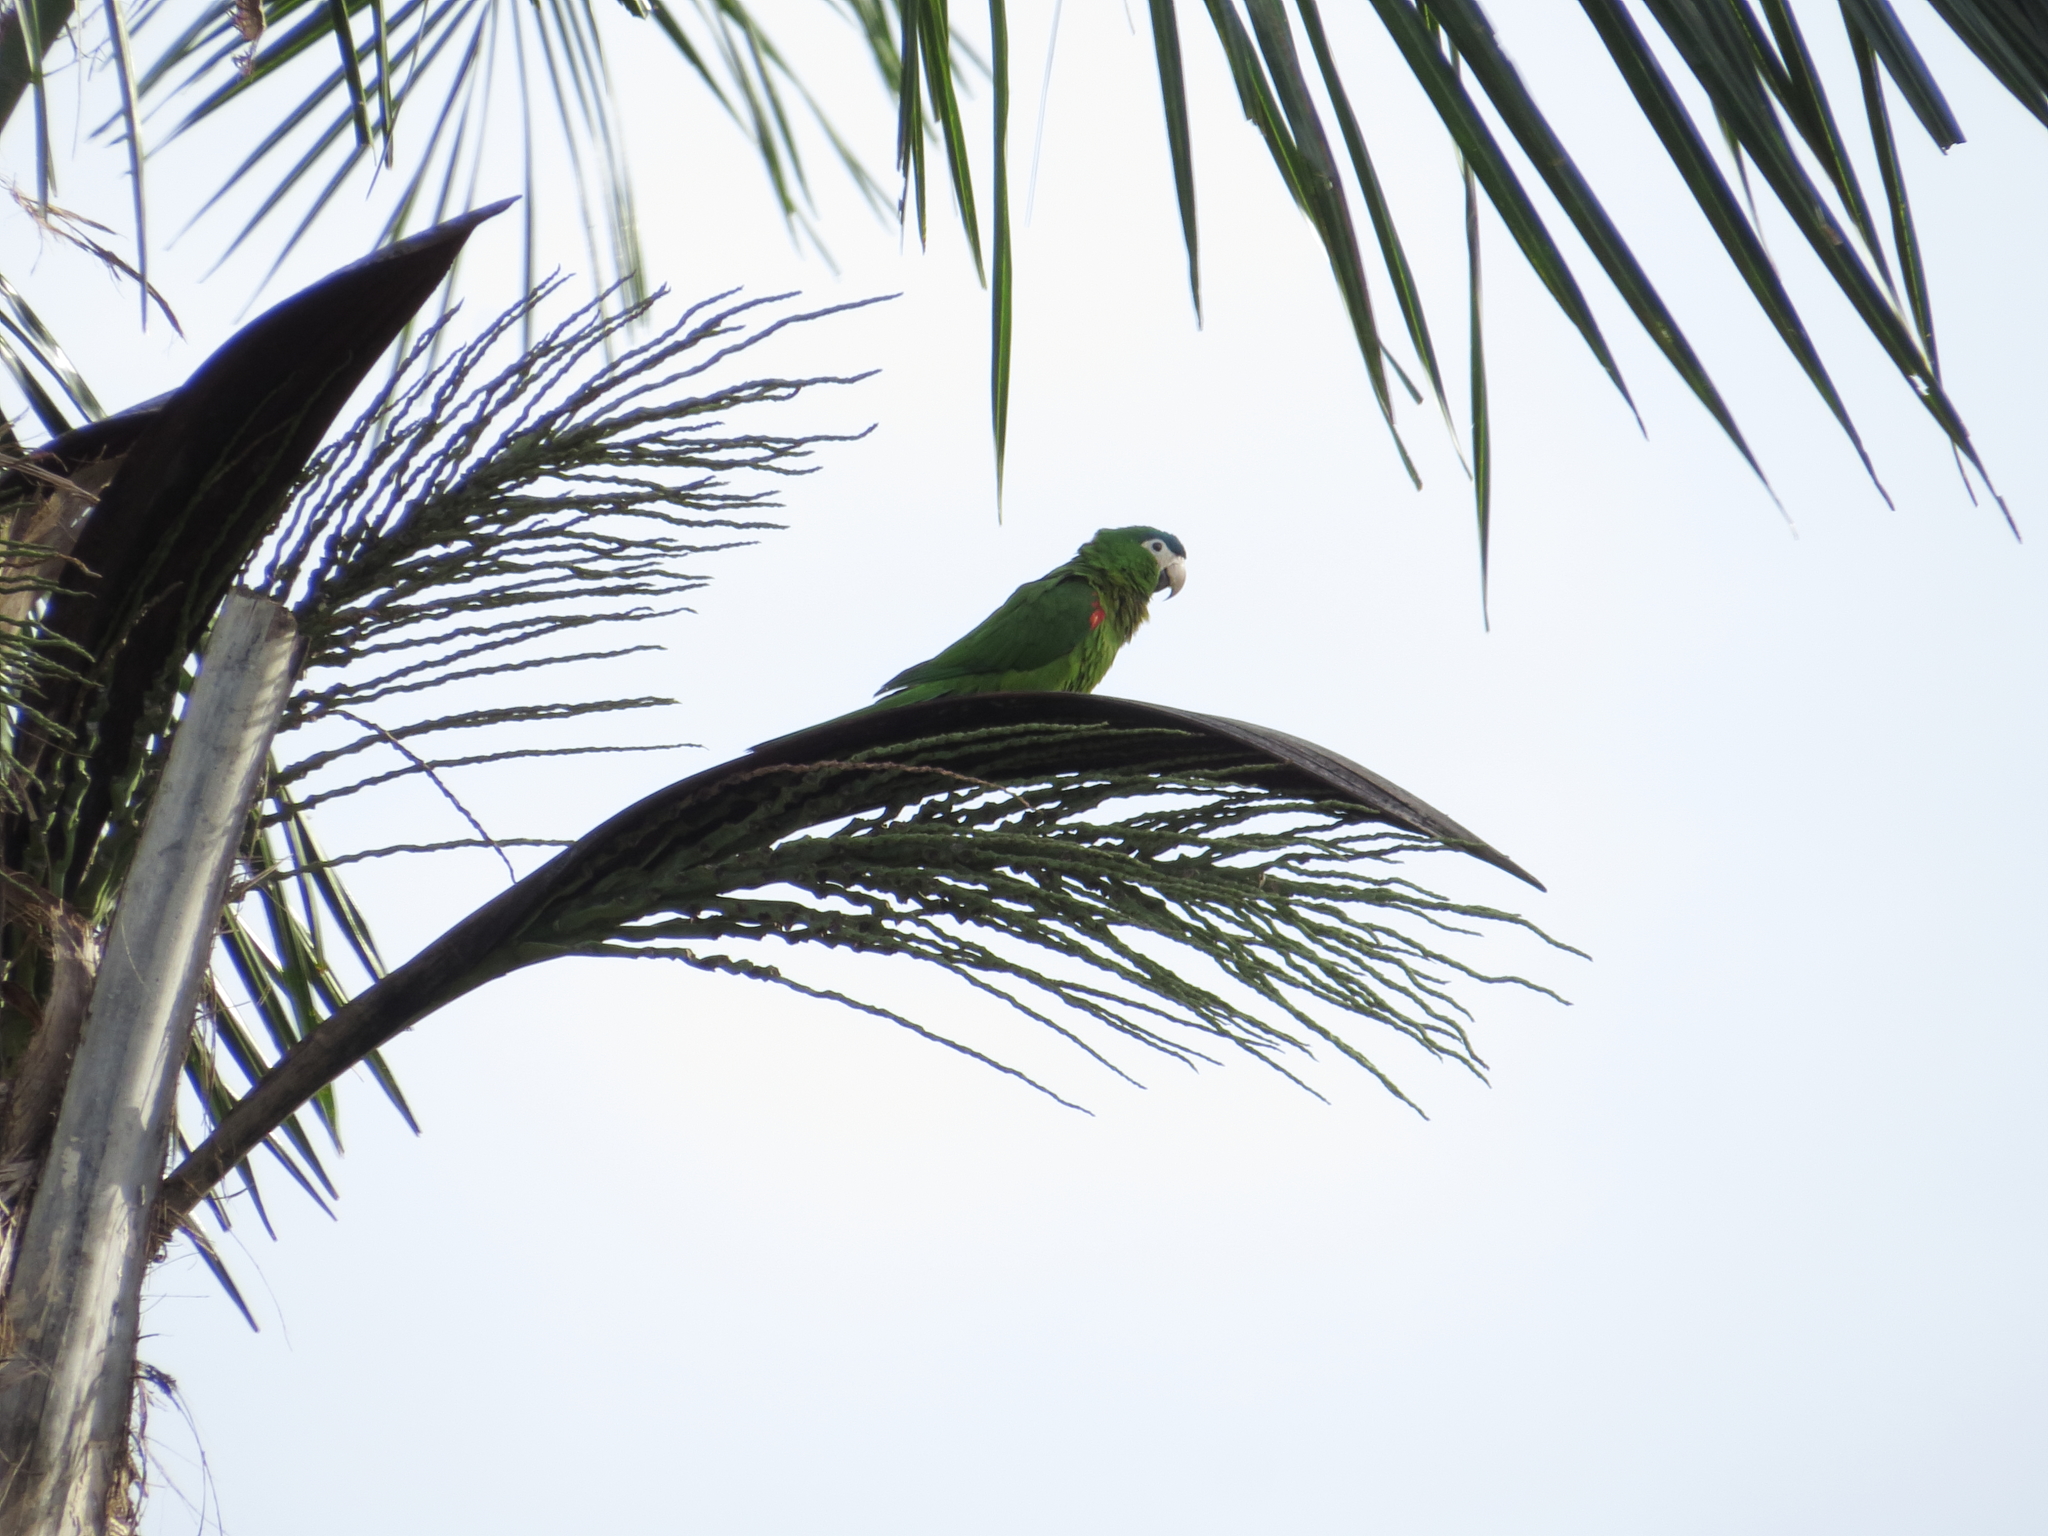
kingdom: Animalia
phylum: Chordata
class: Aves
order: Psittaciformes
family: Psittacidae
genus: Diopsittaca
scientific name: Diopsittaca nobilis
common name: Red-shouldered macaw
